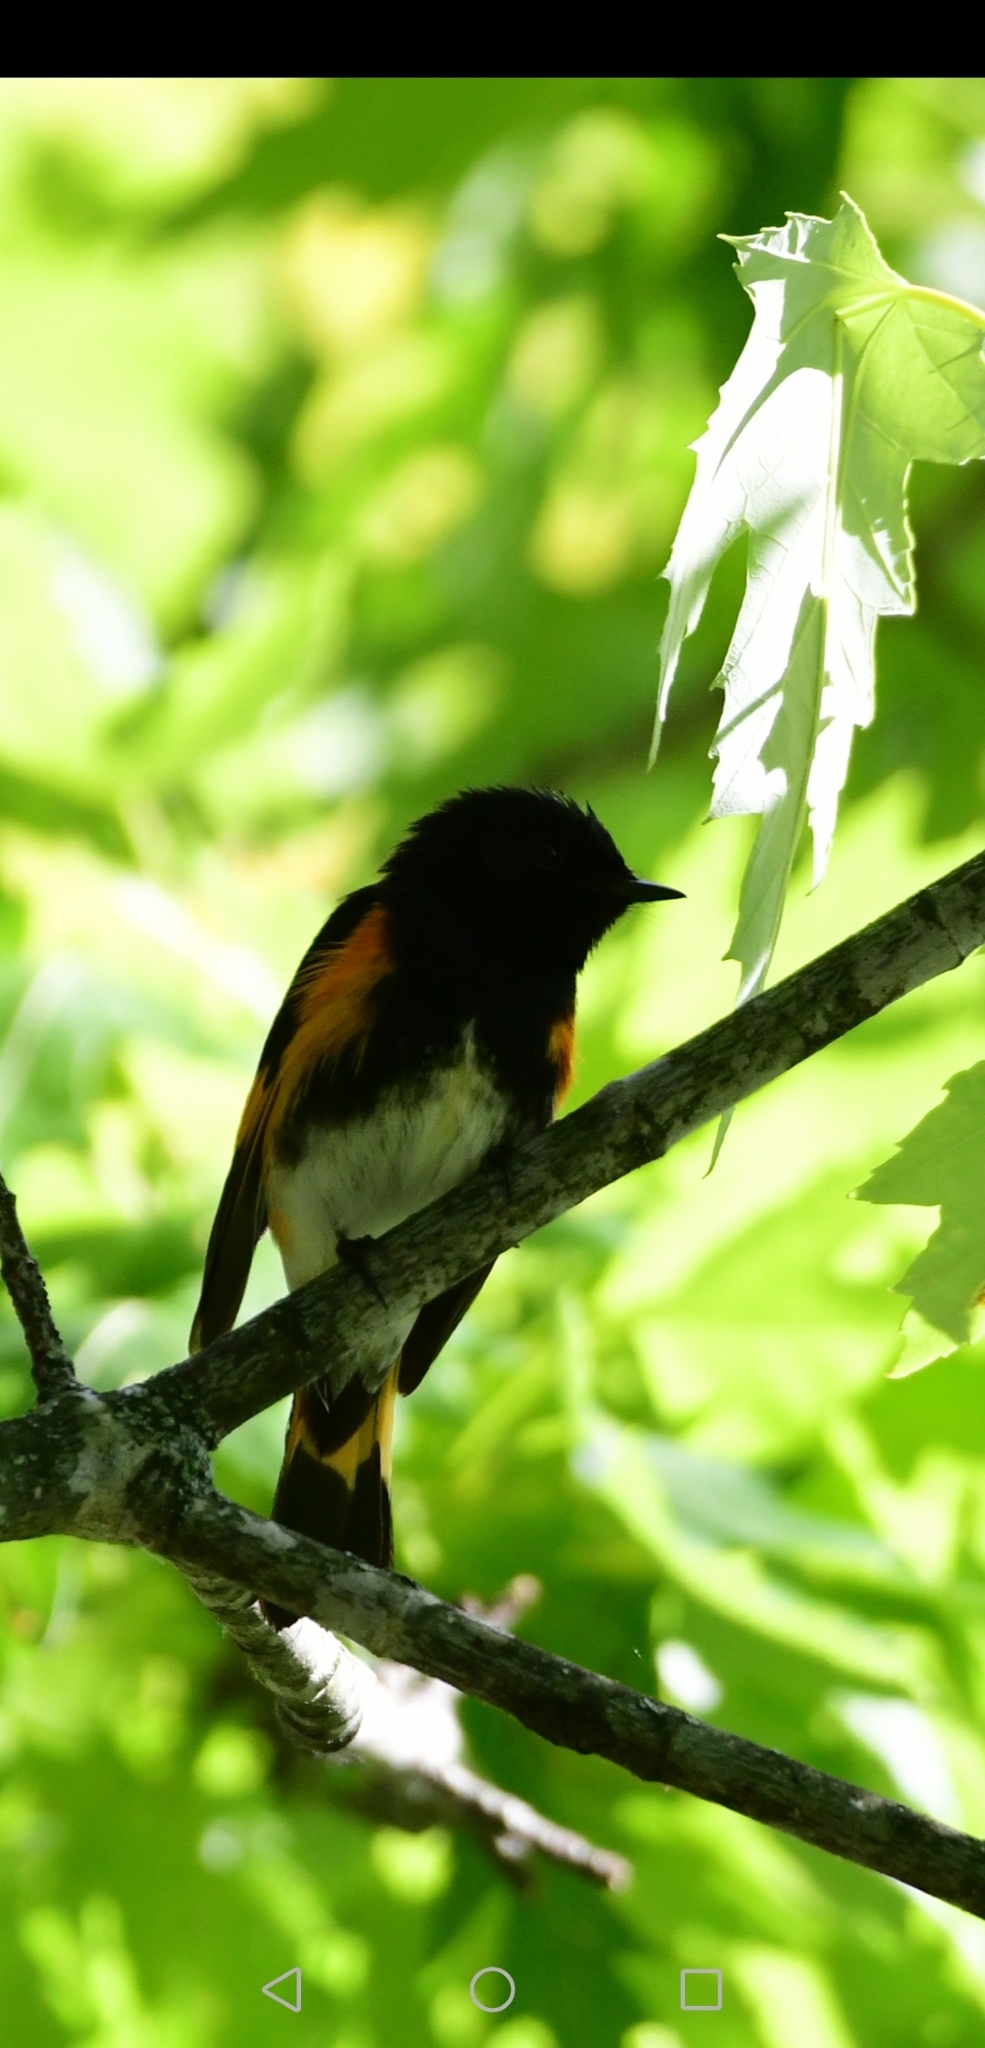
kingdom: Animalia
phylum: Chordata
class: Aves
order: Passeriformes
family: Parulidae
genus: Setophaga
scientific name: Setophaga ruticilla
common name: American redstart
